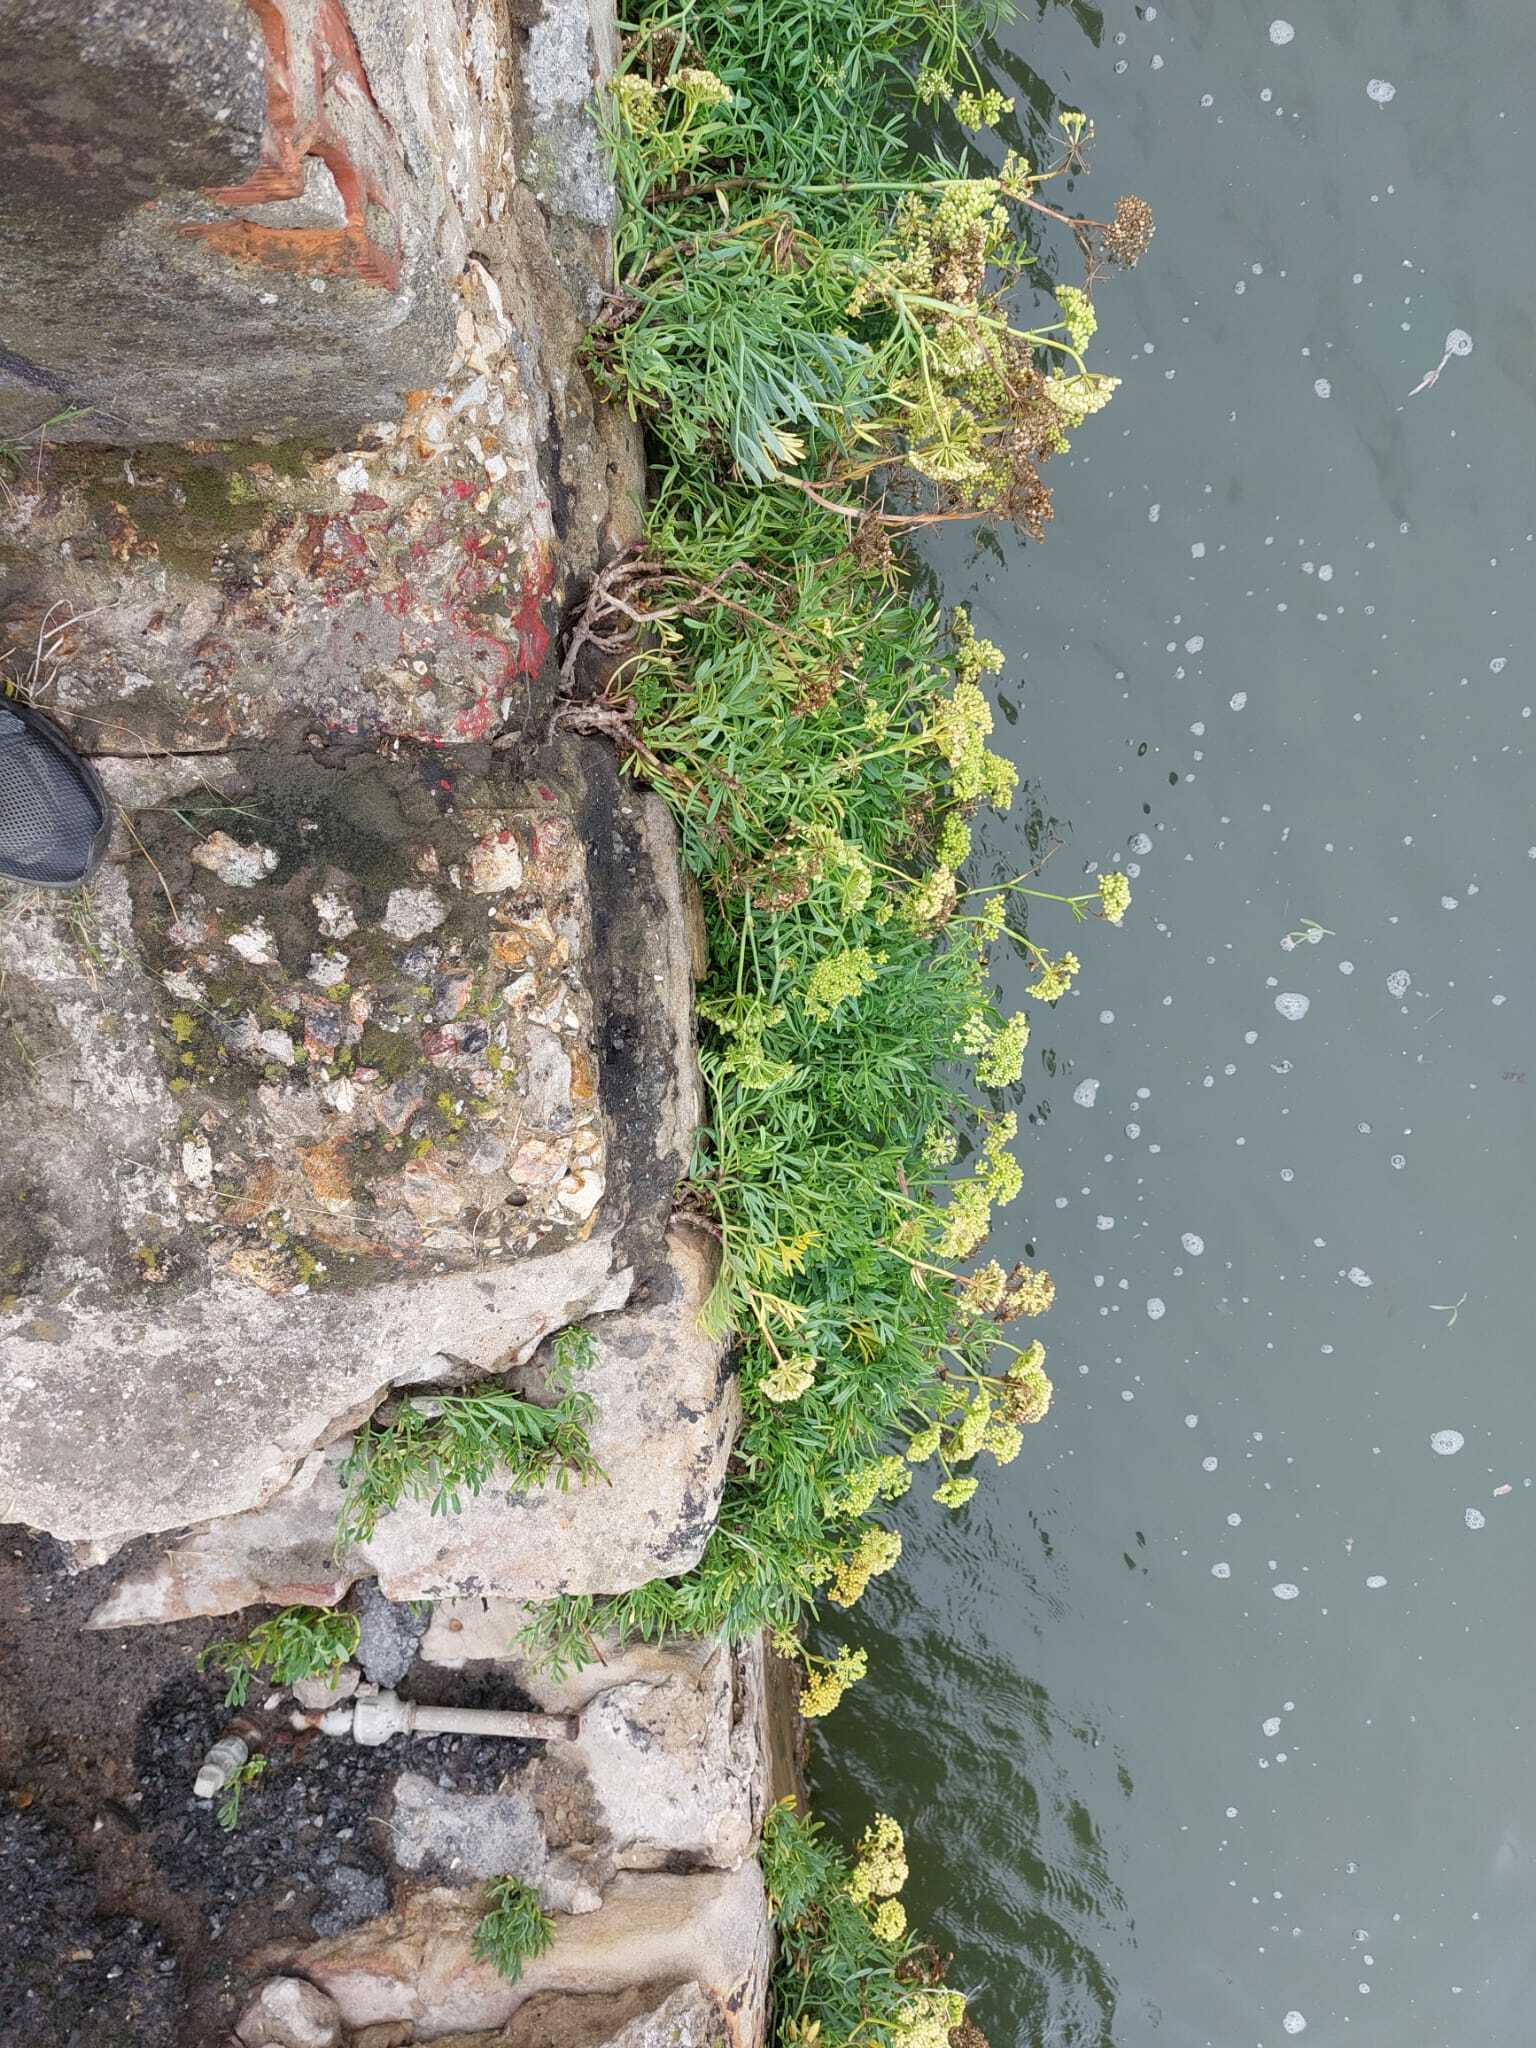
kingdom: Plantae
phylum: Tracheophyta
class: Magnoliopsida
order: Apiales
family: Apiaceae
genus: Crithmum
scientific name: Crithmum maritimum
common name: Rock samphire
